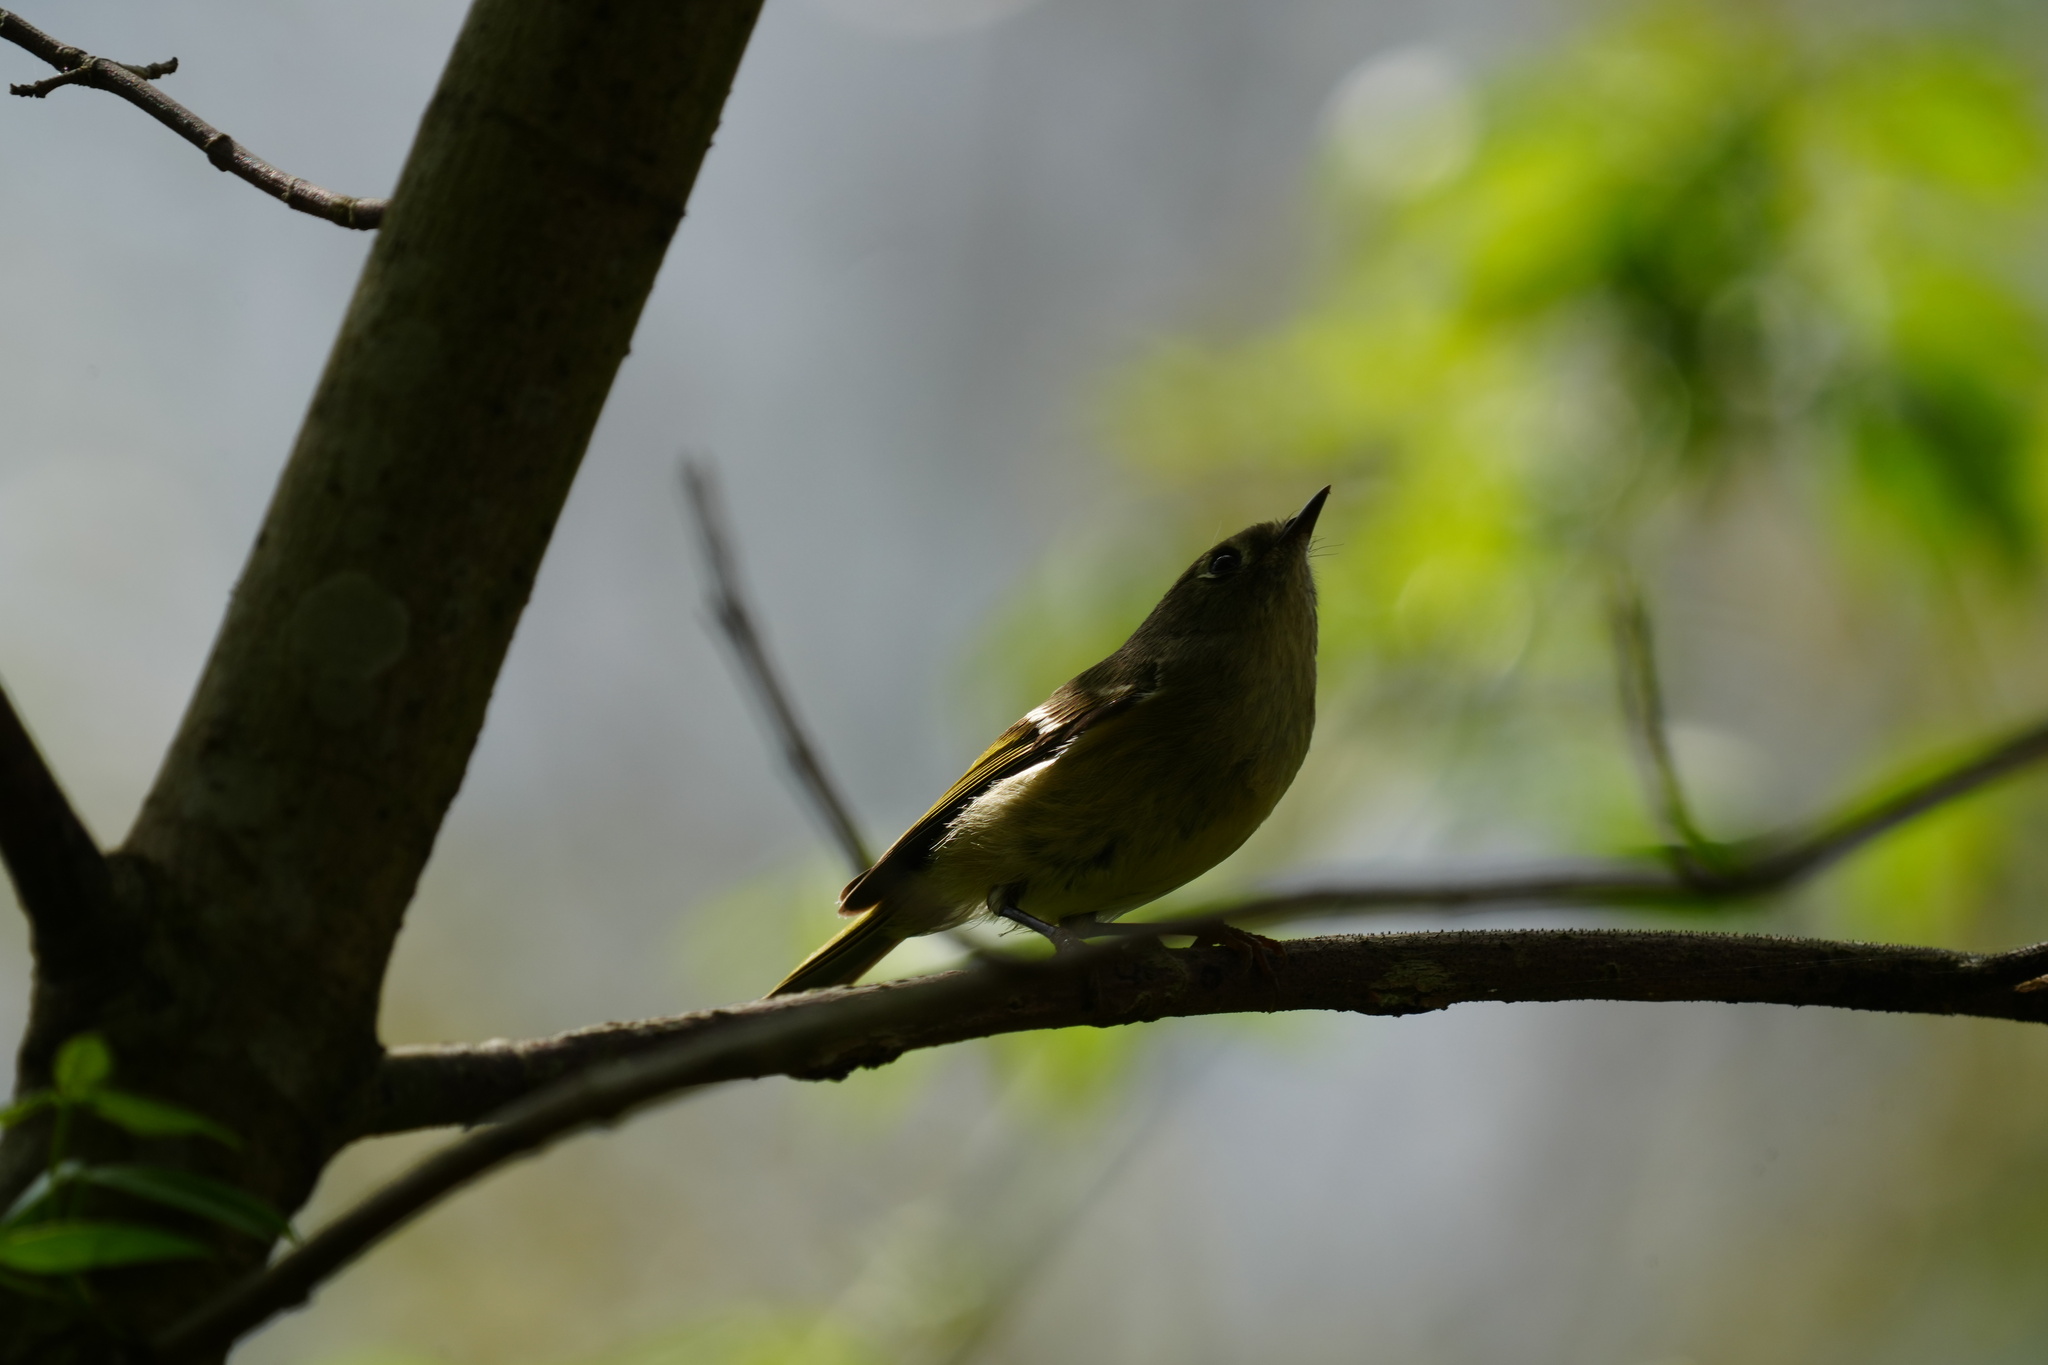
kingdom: Animalia
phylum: Chordata
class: Aves
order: Passeriformes
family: Regulidae
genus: Regulus
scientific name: Regulus calendula
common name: Ruby-crowned kinglet
